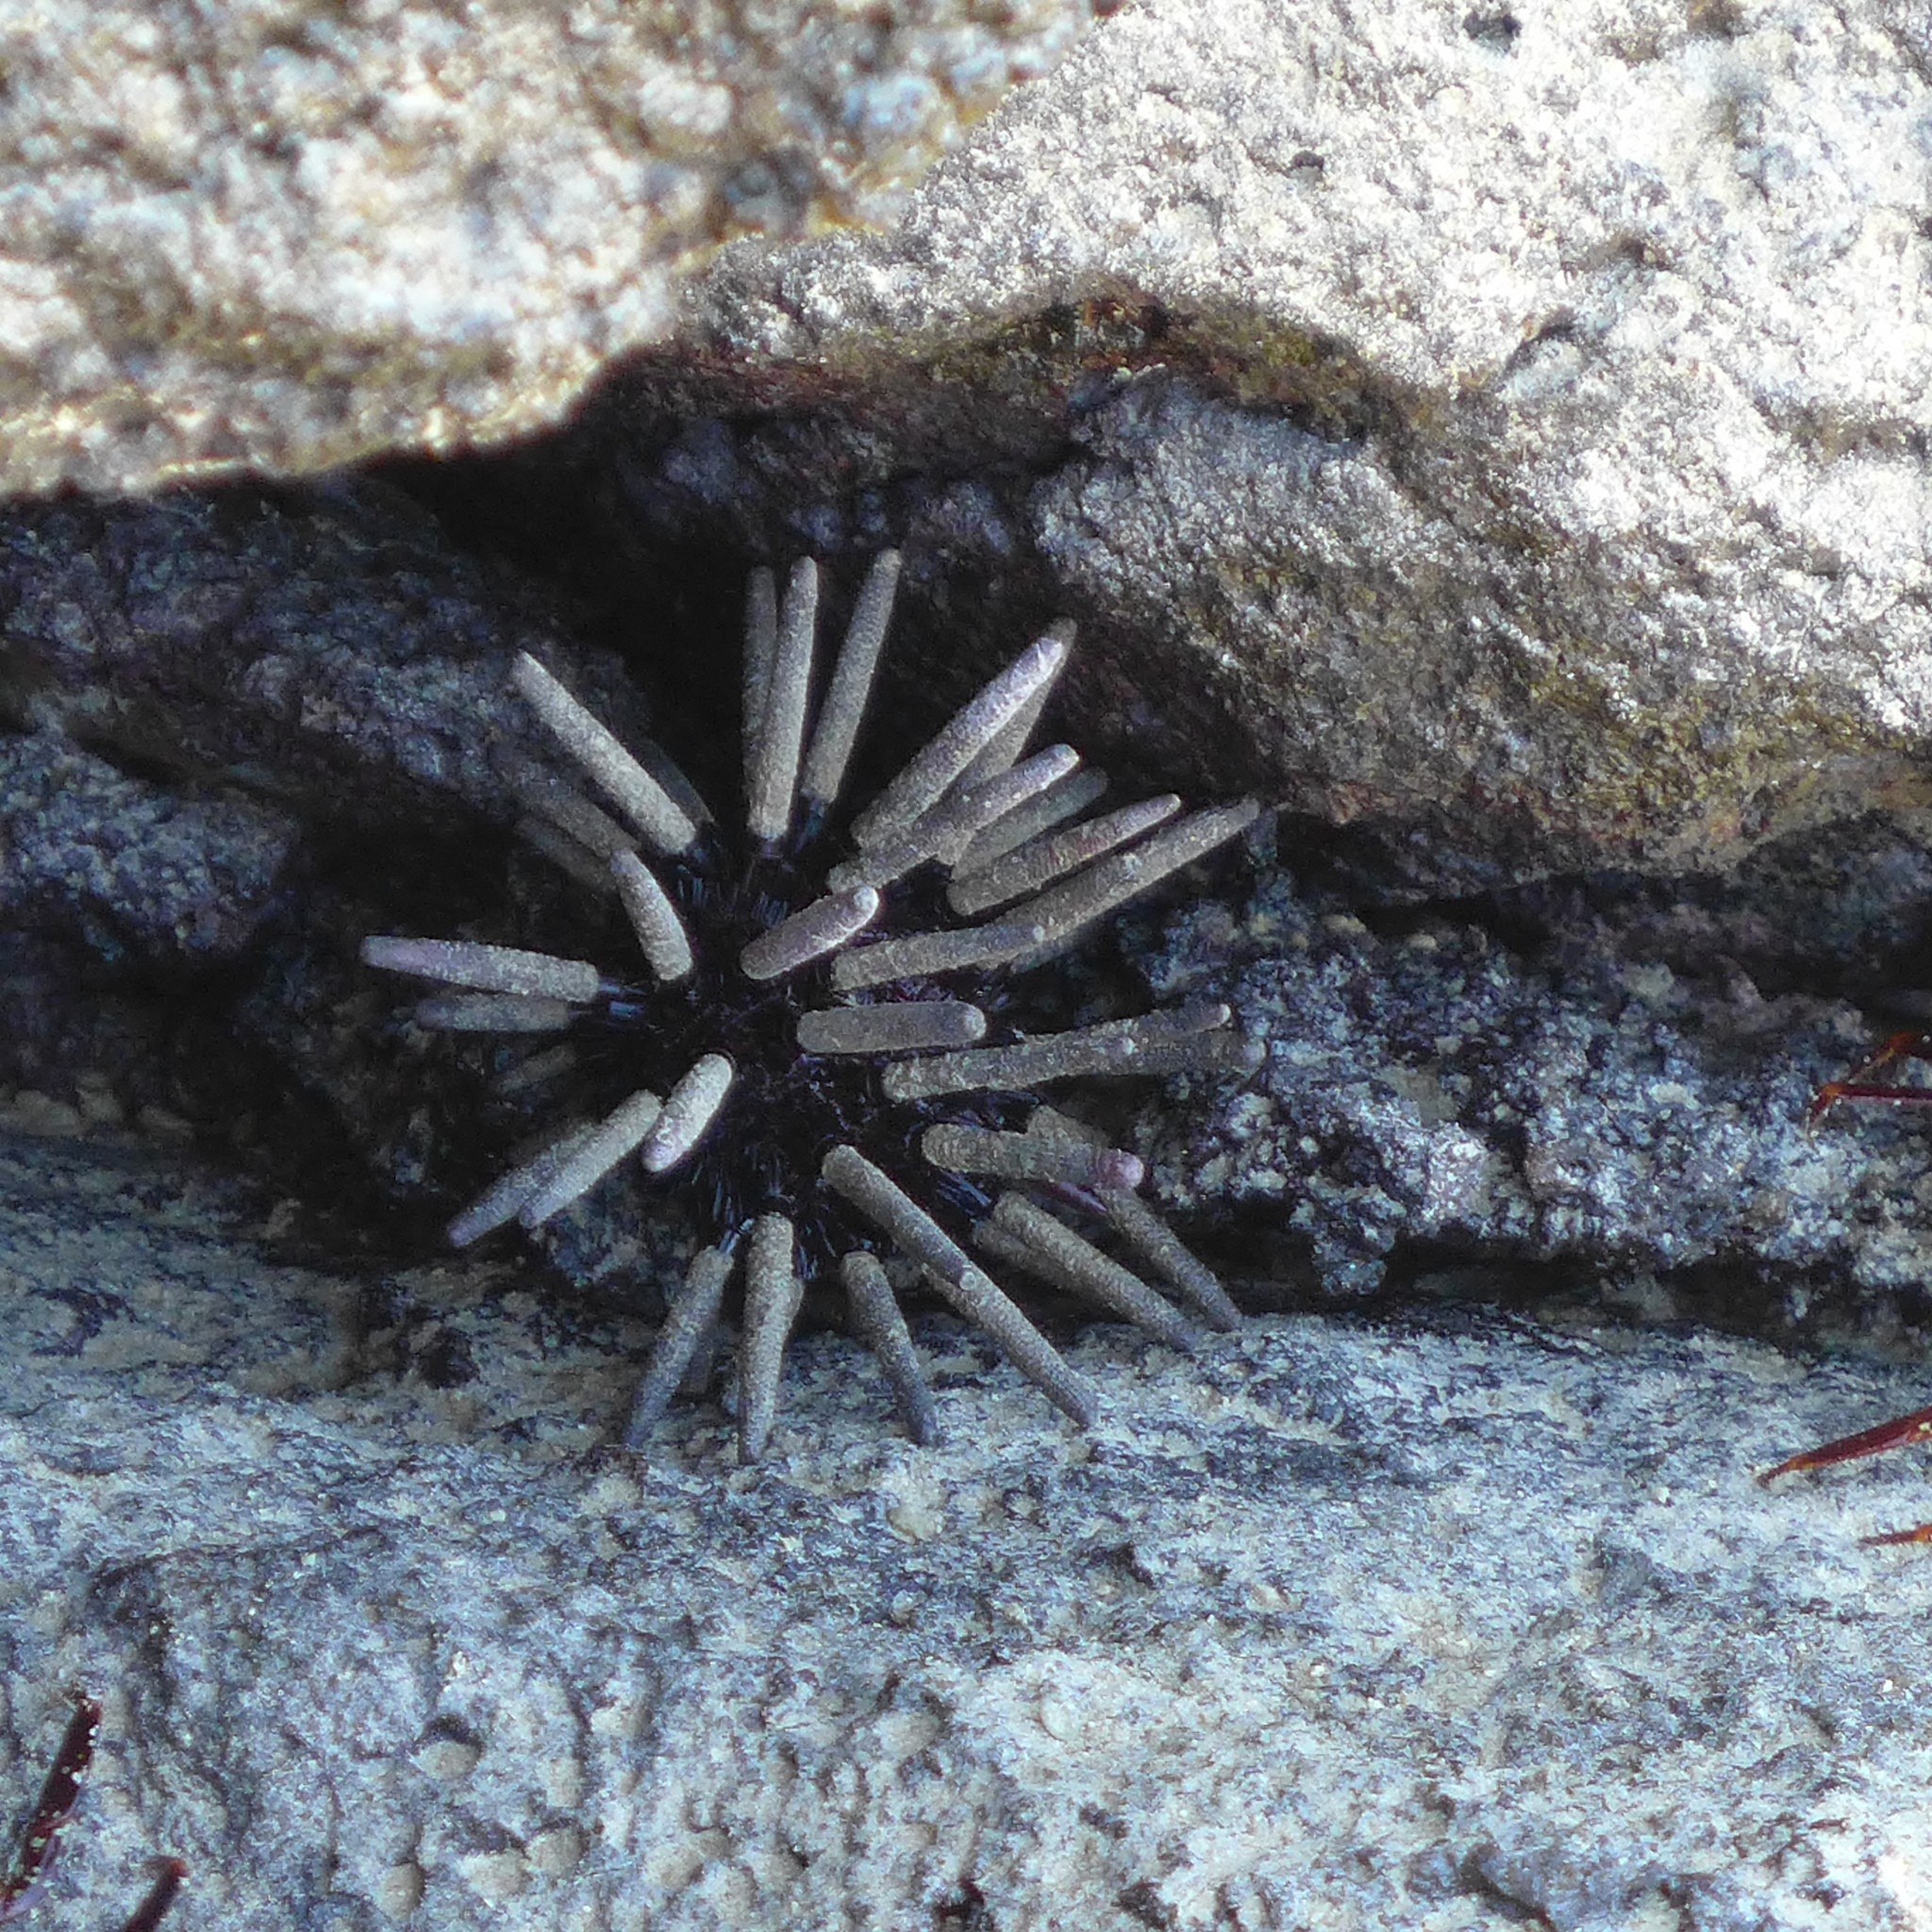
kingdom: Animalia
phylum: Echinodermata
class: Echinoidea
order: Cidaroida
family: Cidaridae
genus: Eucidaris
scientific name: Eucidaris galapagensis
